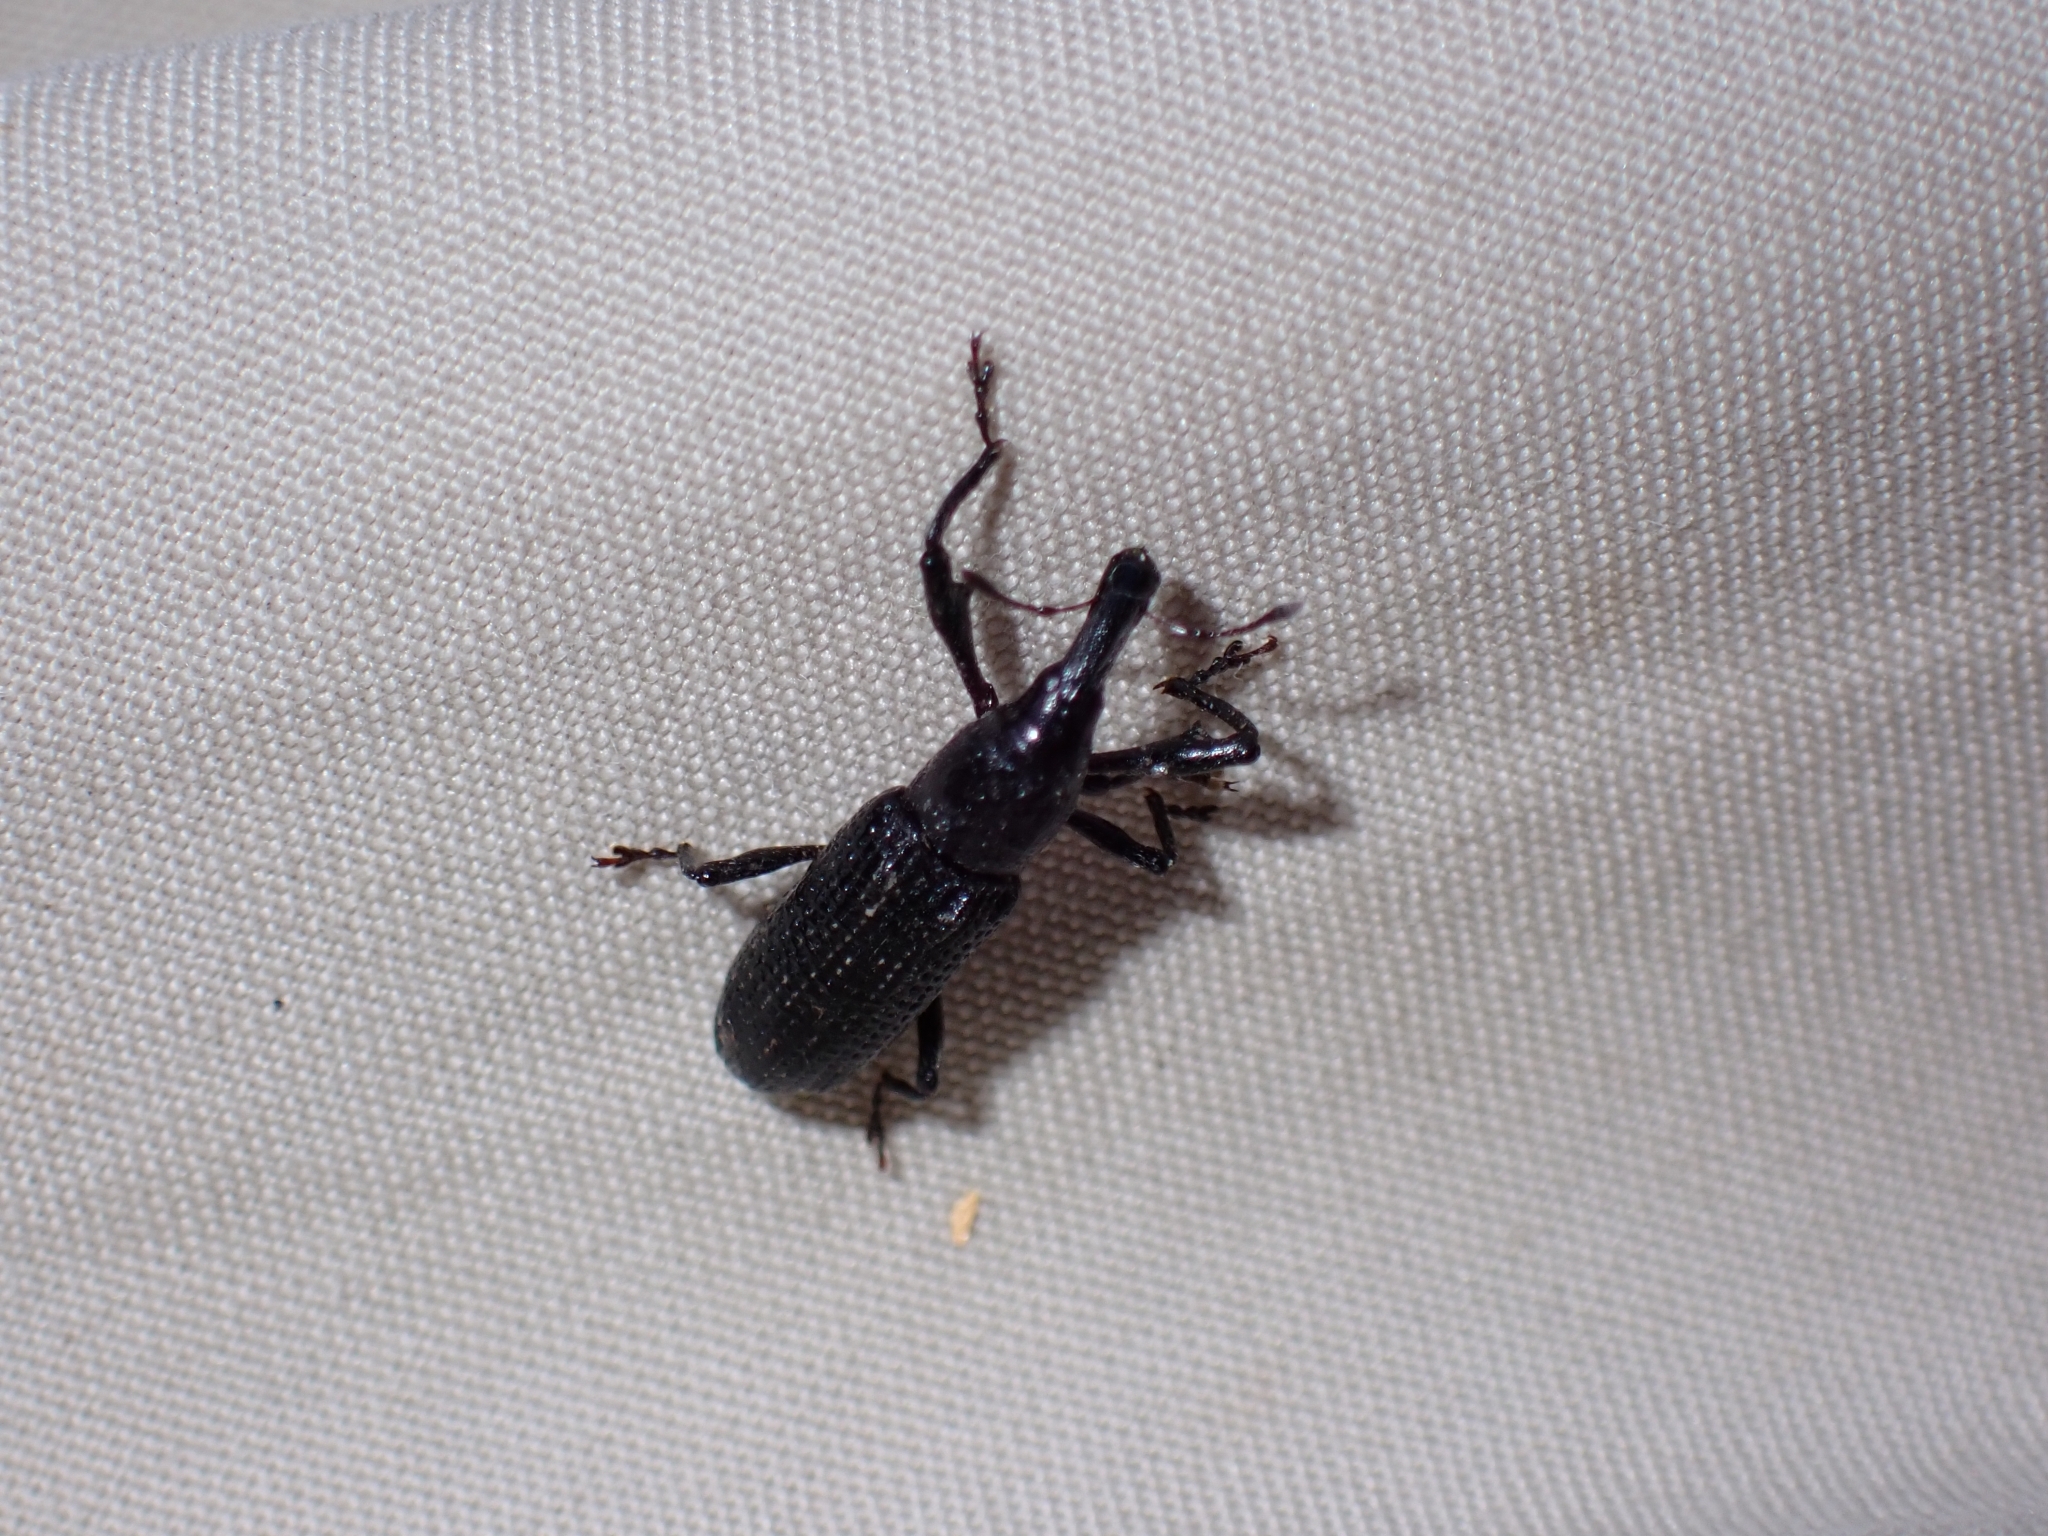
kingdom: Animalia
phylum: Arthropoda
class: Insecta
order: Coleoptera
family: Curculionidae
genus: Peribleptus
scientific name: Peribleptus dealbatus
